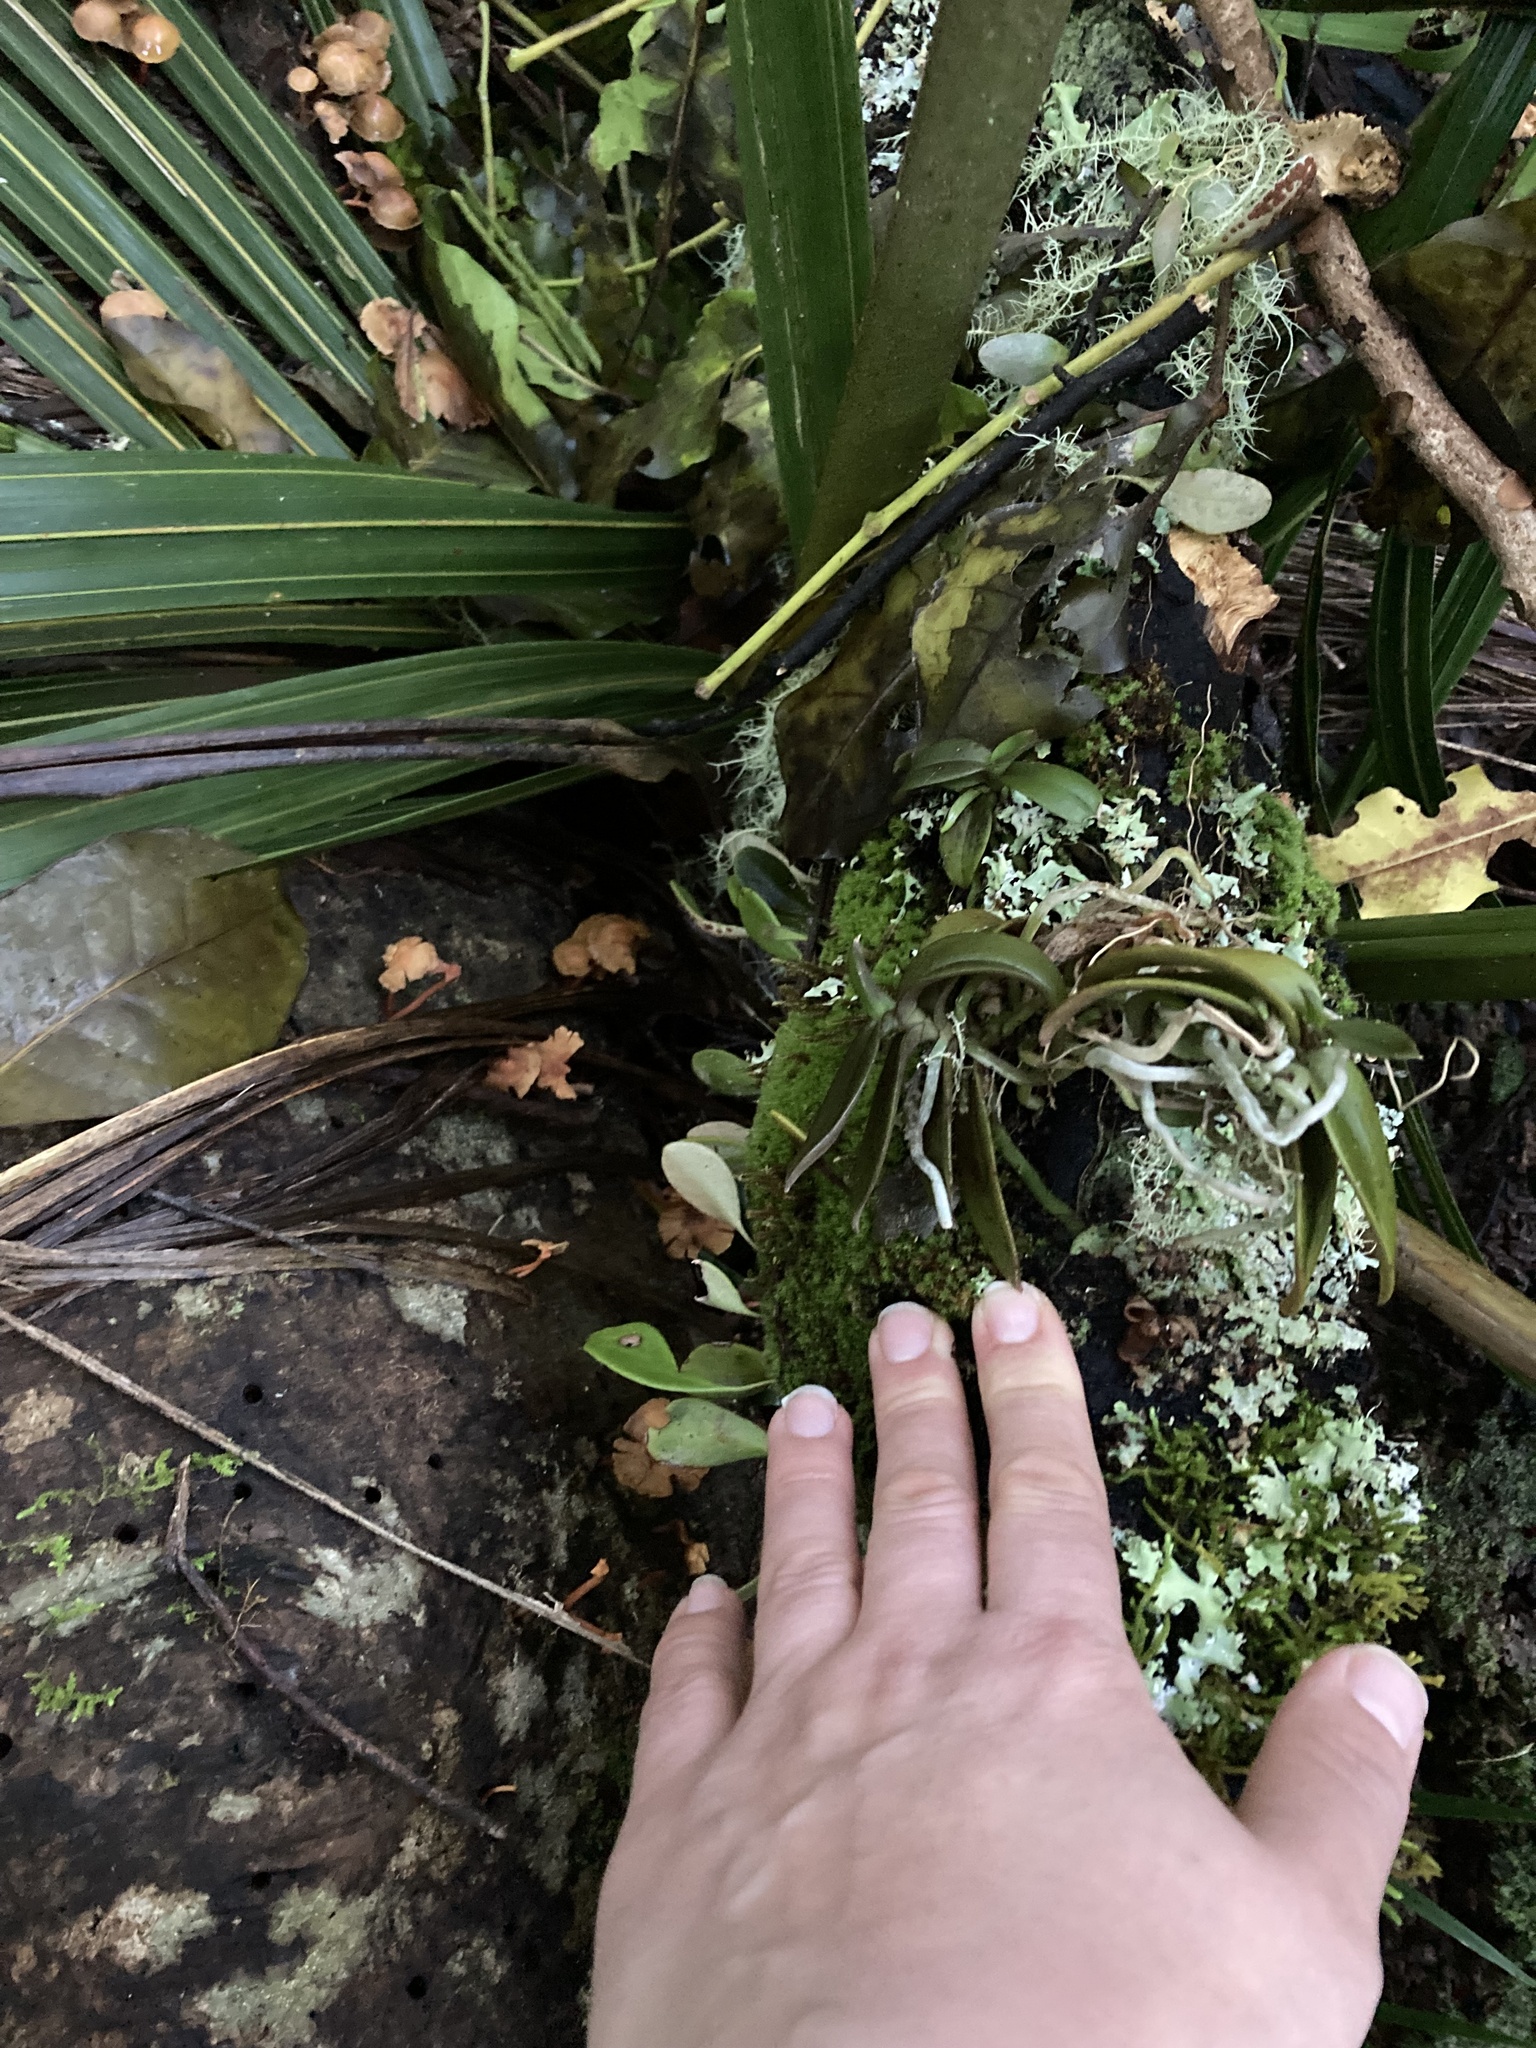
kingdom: Plantae
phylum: Tracheophyta
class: Liliopsida
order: Asparagales
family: Orchidaceae
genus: Drymoanthus
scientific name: Drymoanthus adversus
